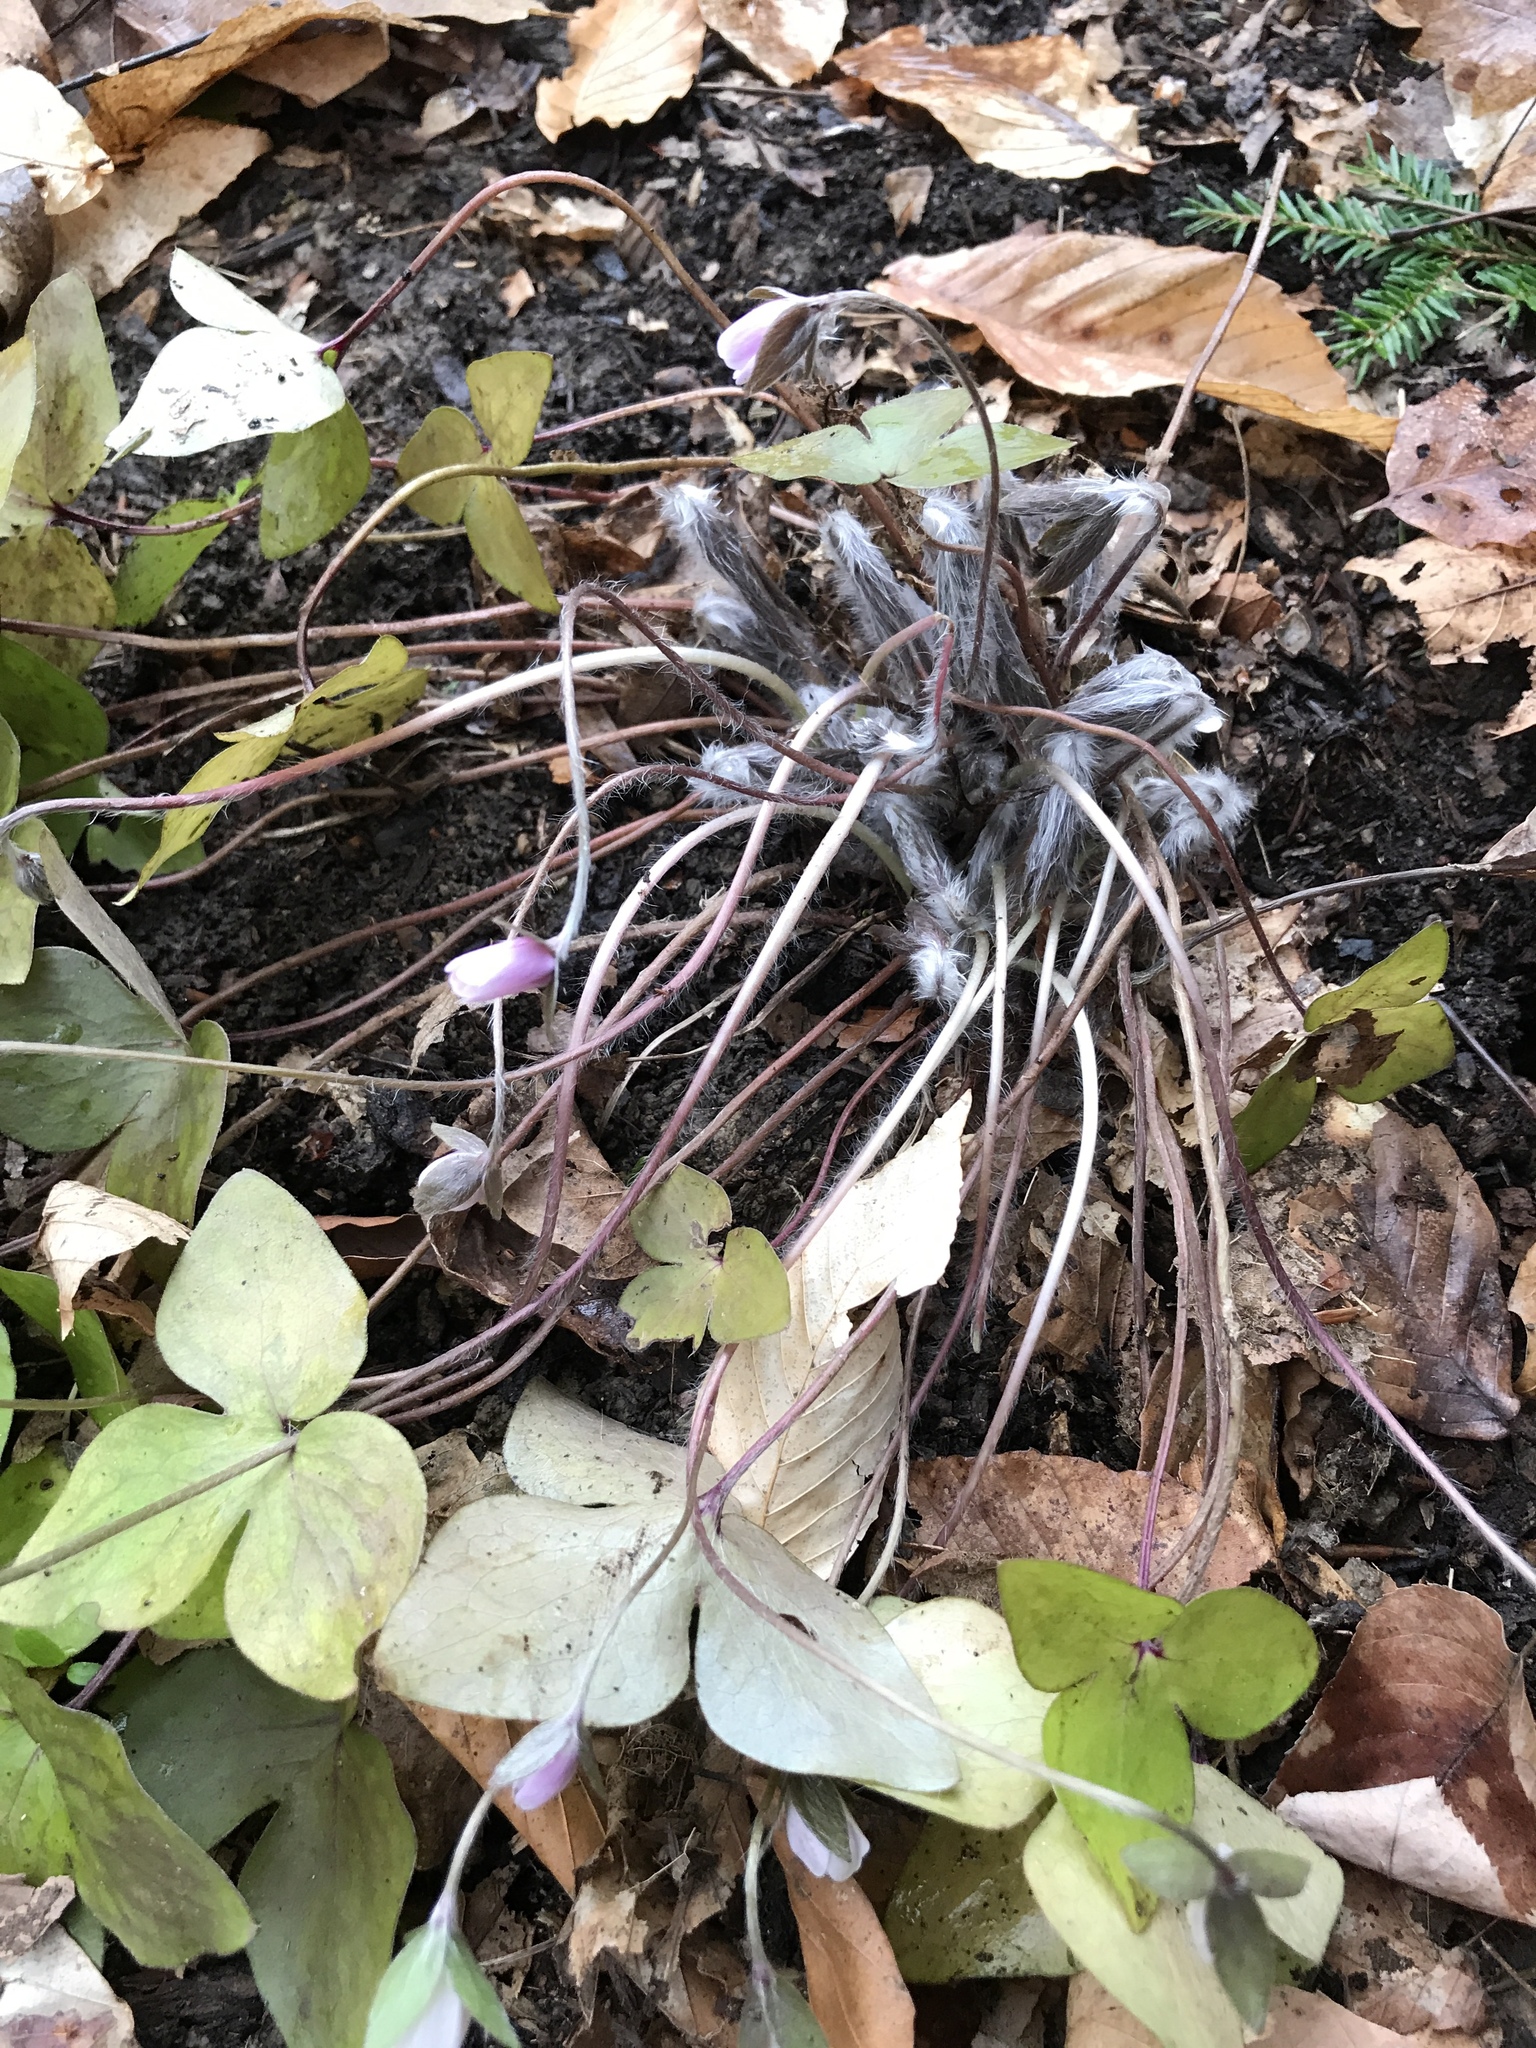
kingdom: Plantae
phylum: Tracheophyta
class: Magnoliopsida
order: Ranunculales
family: Ranunculaceae
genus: Hepatica
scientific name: Hepatica acutiloba
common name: Sharp-lobed hepatica
